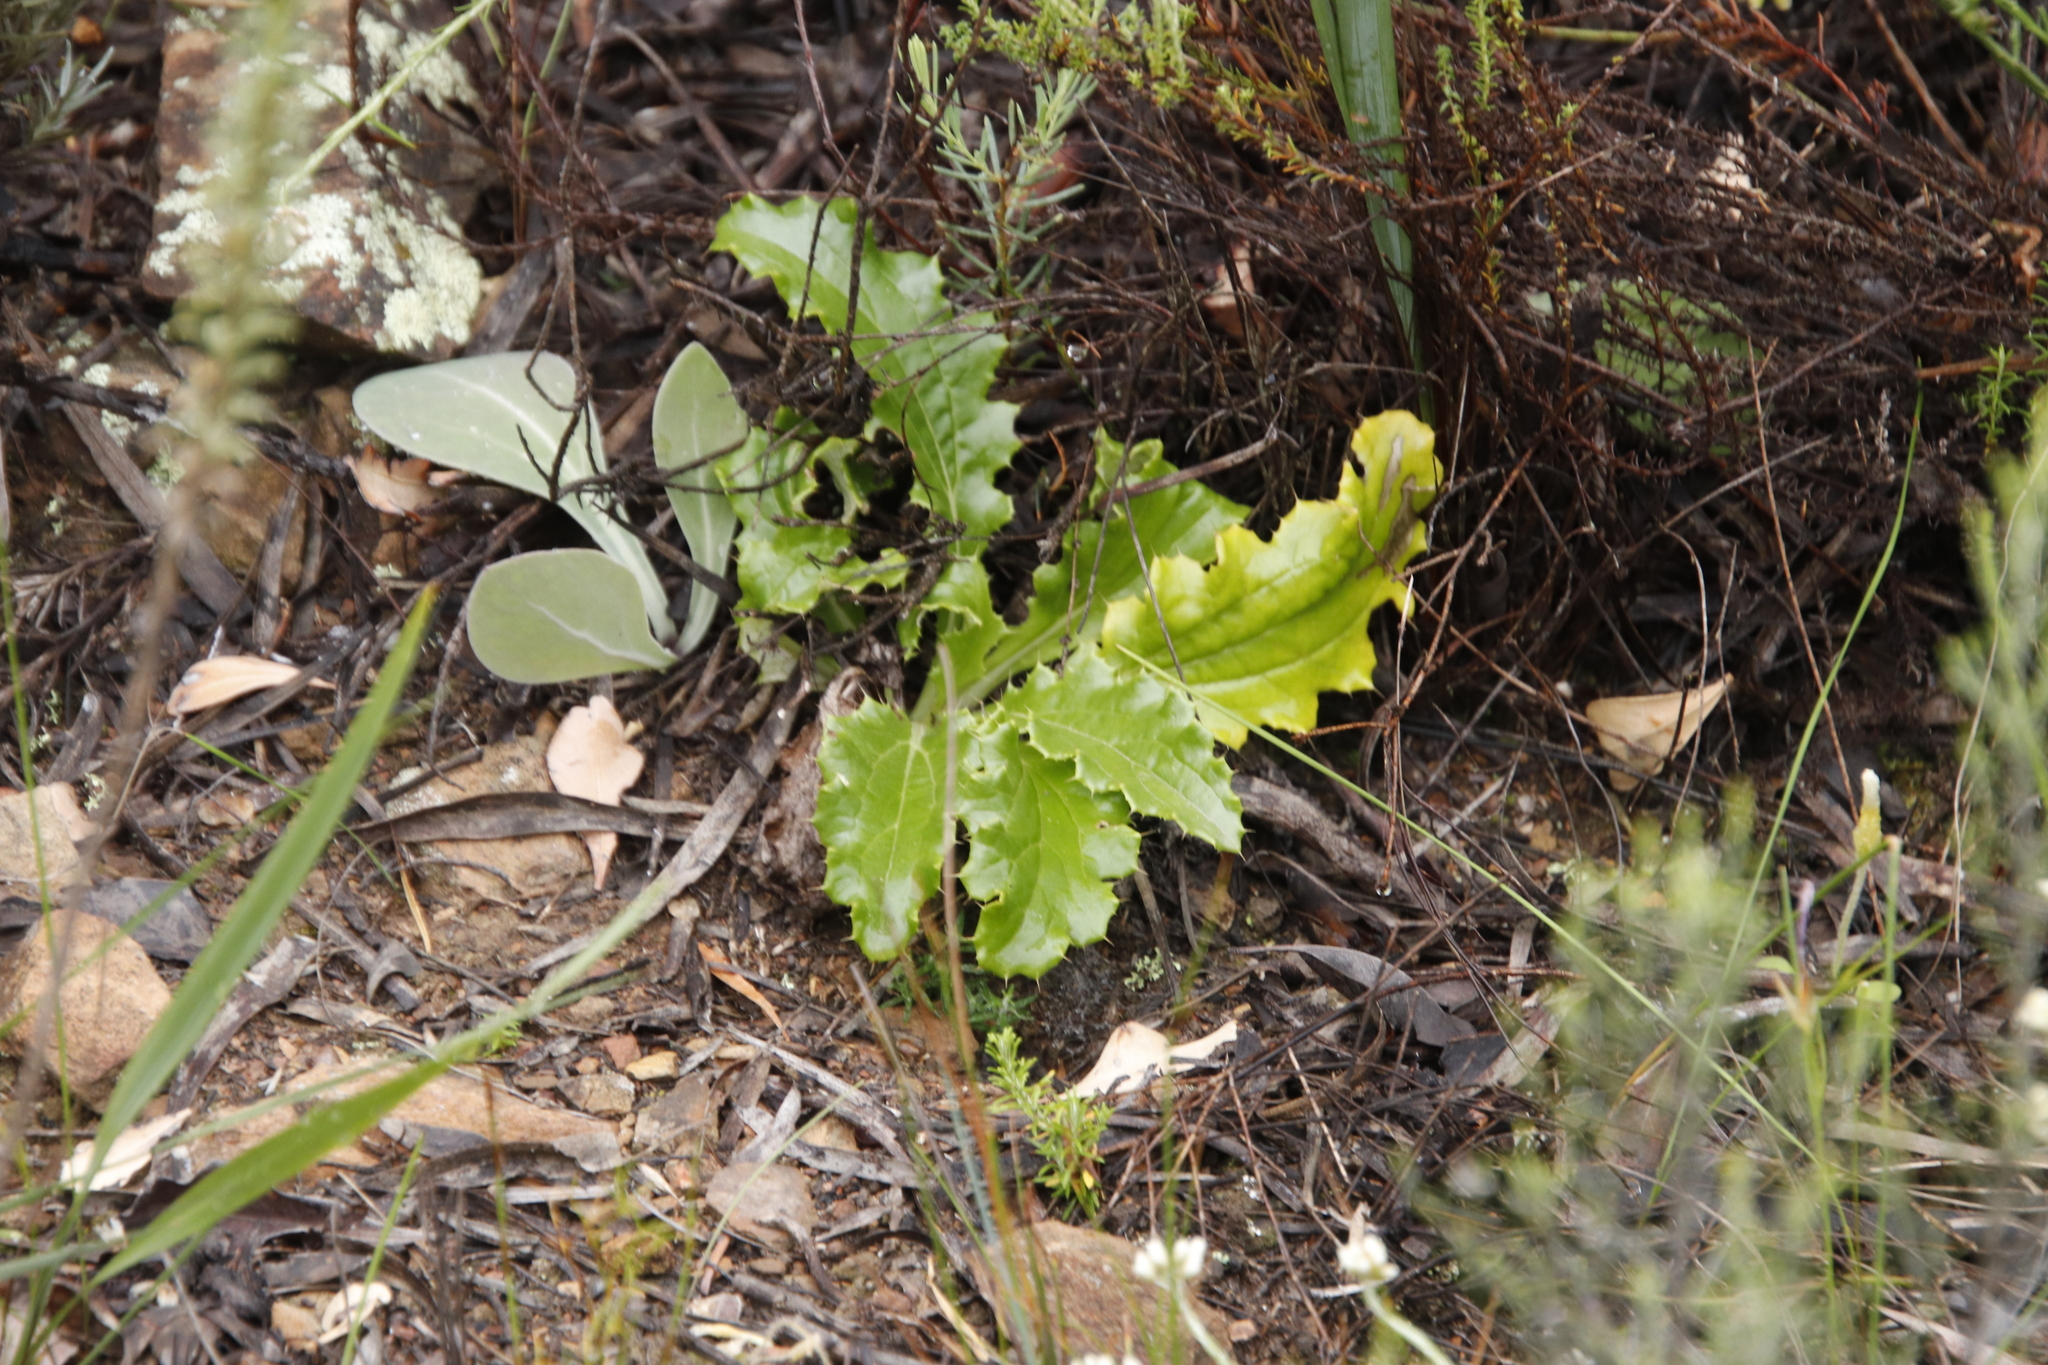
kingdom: Plantae
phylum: Tracheophyta
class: Magnoliopsida
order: Asterales
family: Asteraceae
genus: Berkheya
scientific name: Berkheya carlinoides
